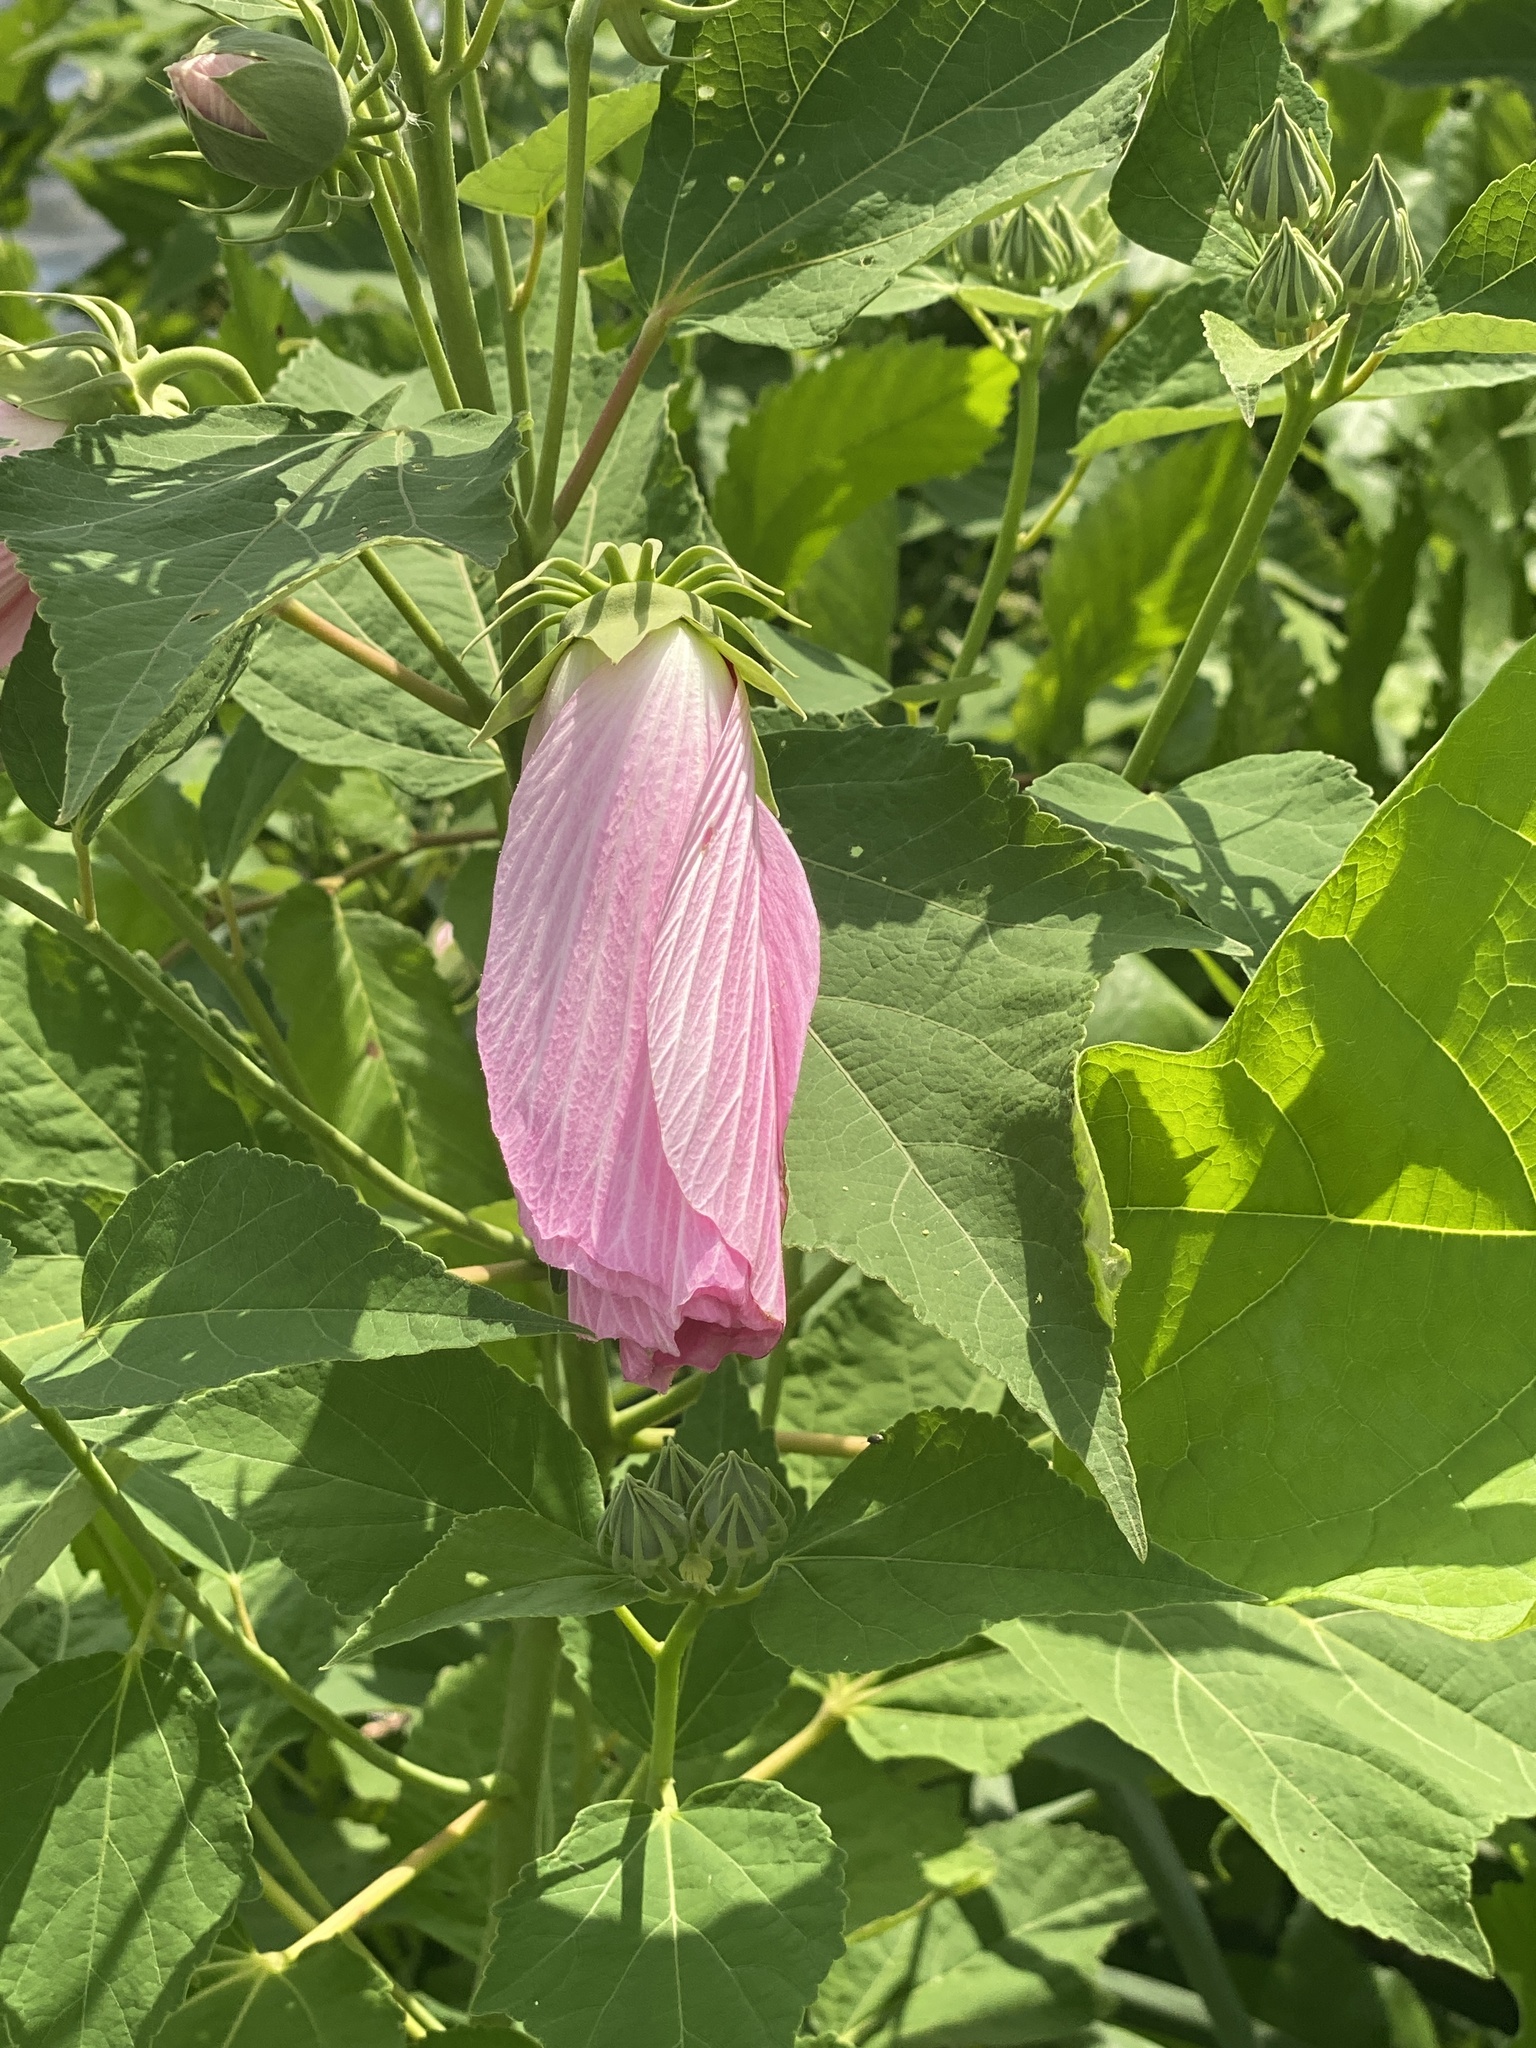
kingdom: Plantae
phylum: Tracheophyta
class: Magnoliopsida
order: Malvales
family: Malvaceae
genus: Hibiscus
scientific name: Hibiscus moscheutos
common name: Common rose-mallow
